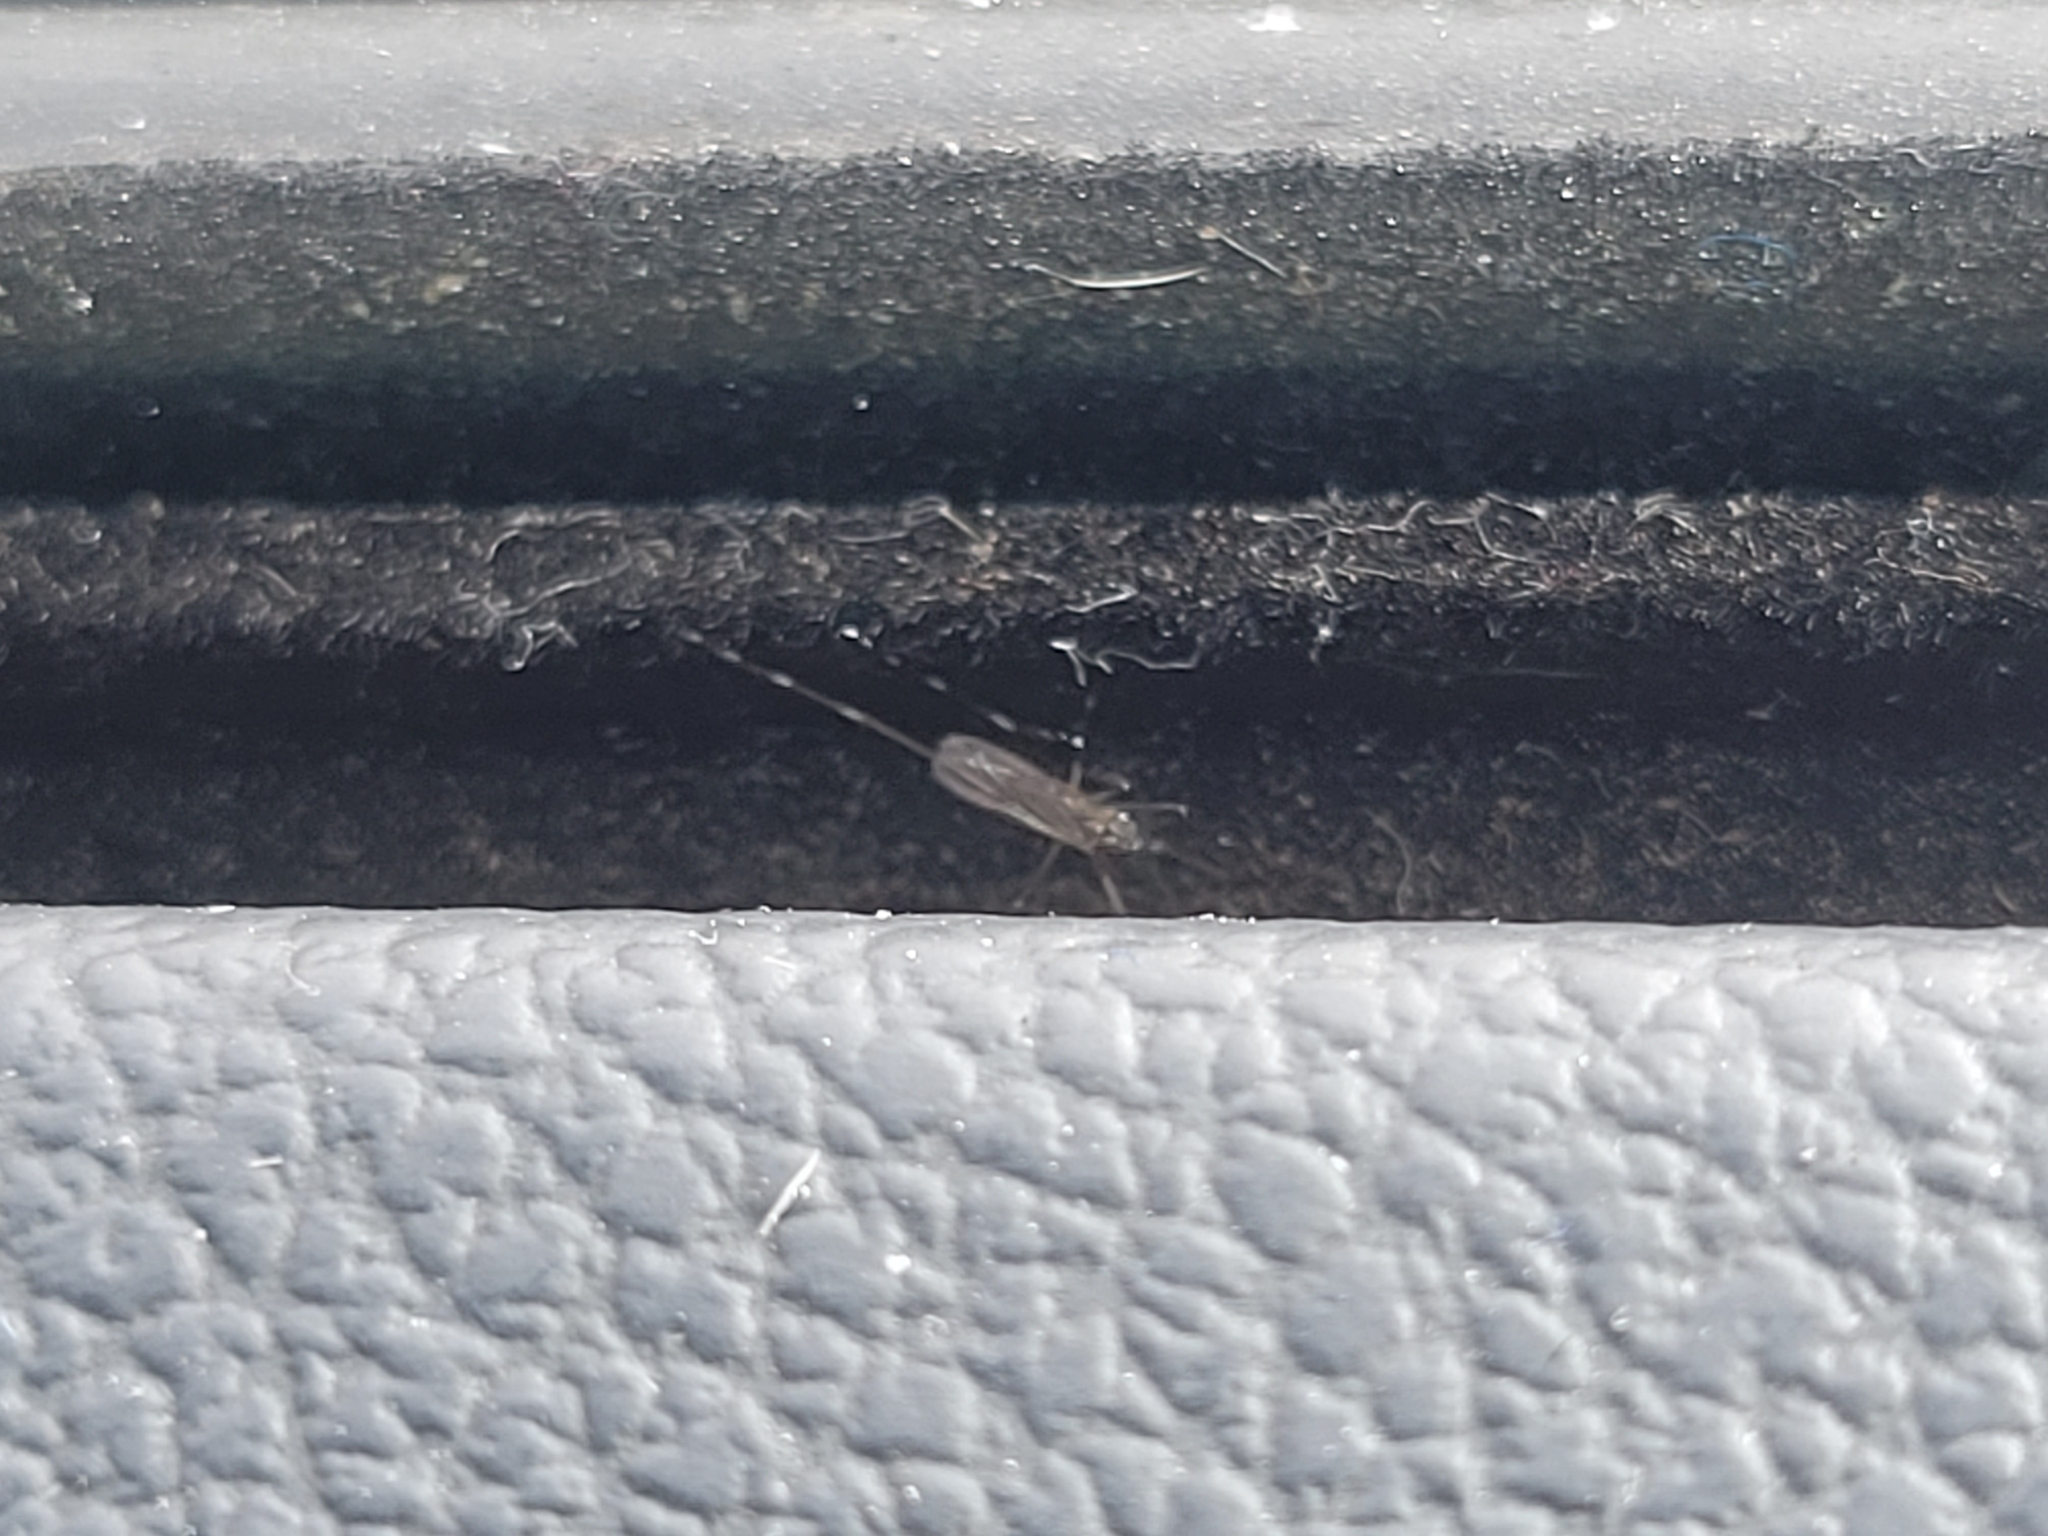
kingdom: Animalia
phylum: Arthropoda
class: Insecta
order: Diptera
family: Culicidae
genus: Aedes
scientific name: Aedes albopictus
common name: Tiger mosquito
